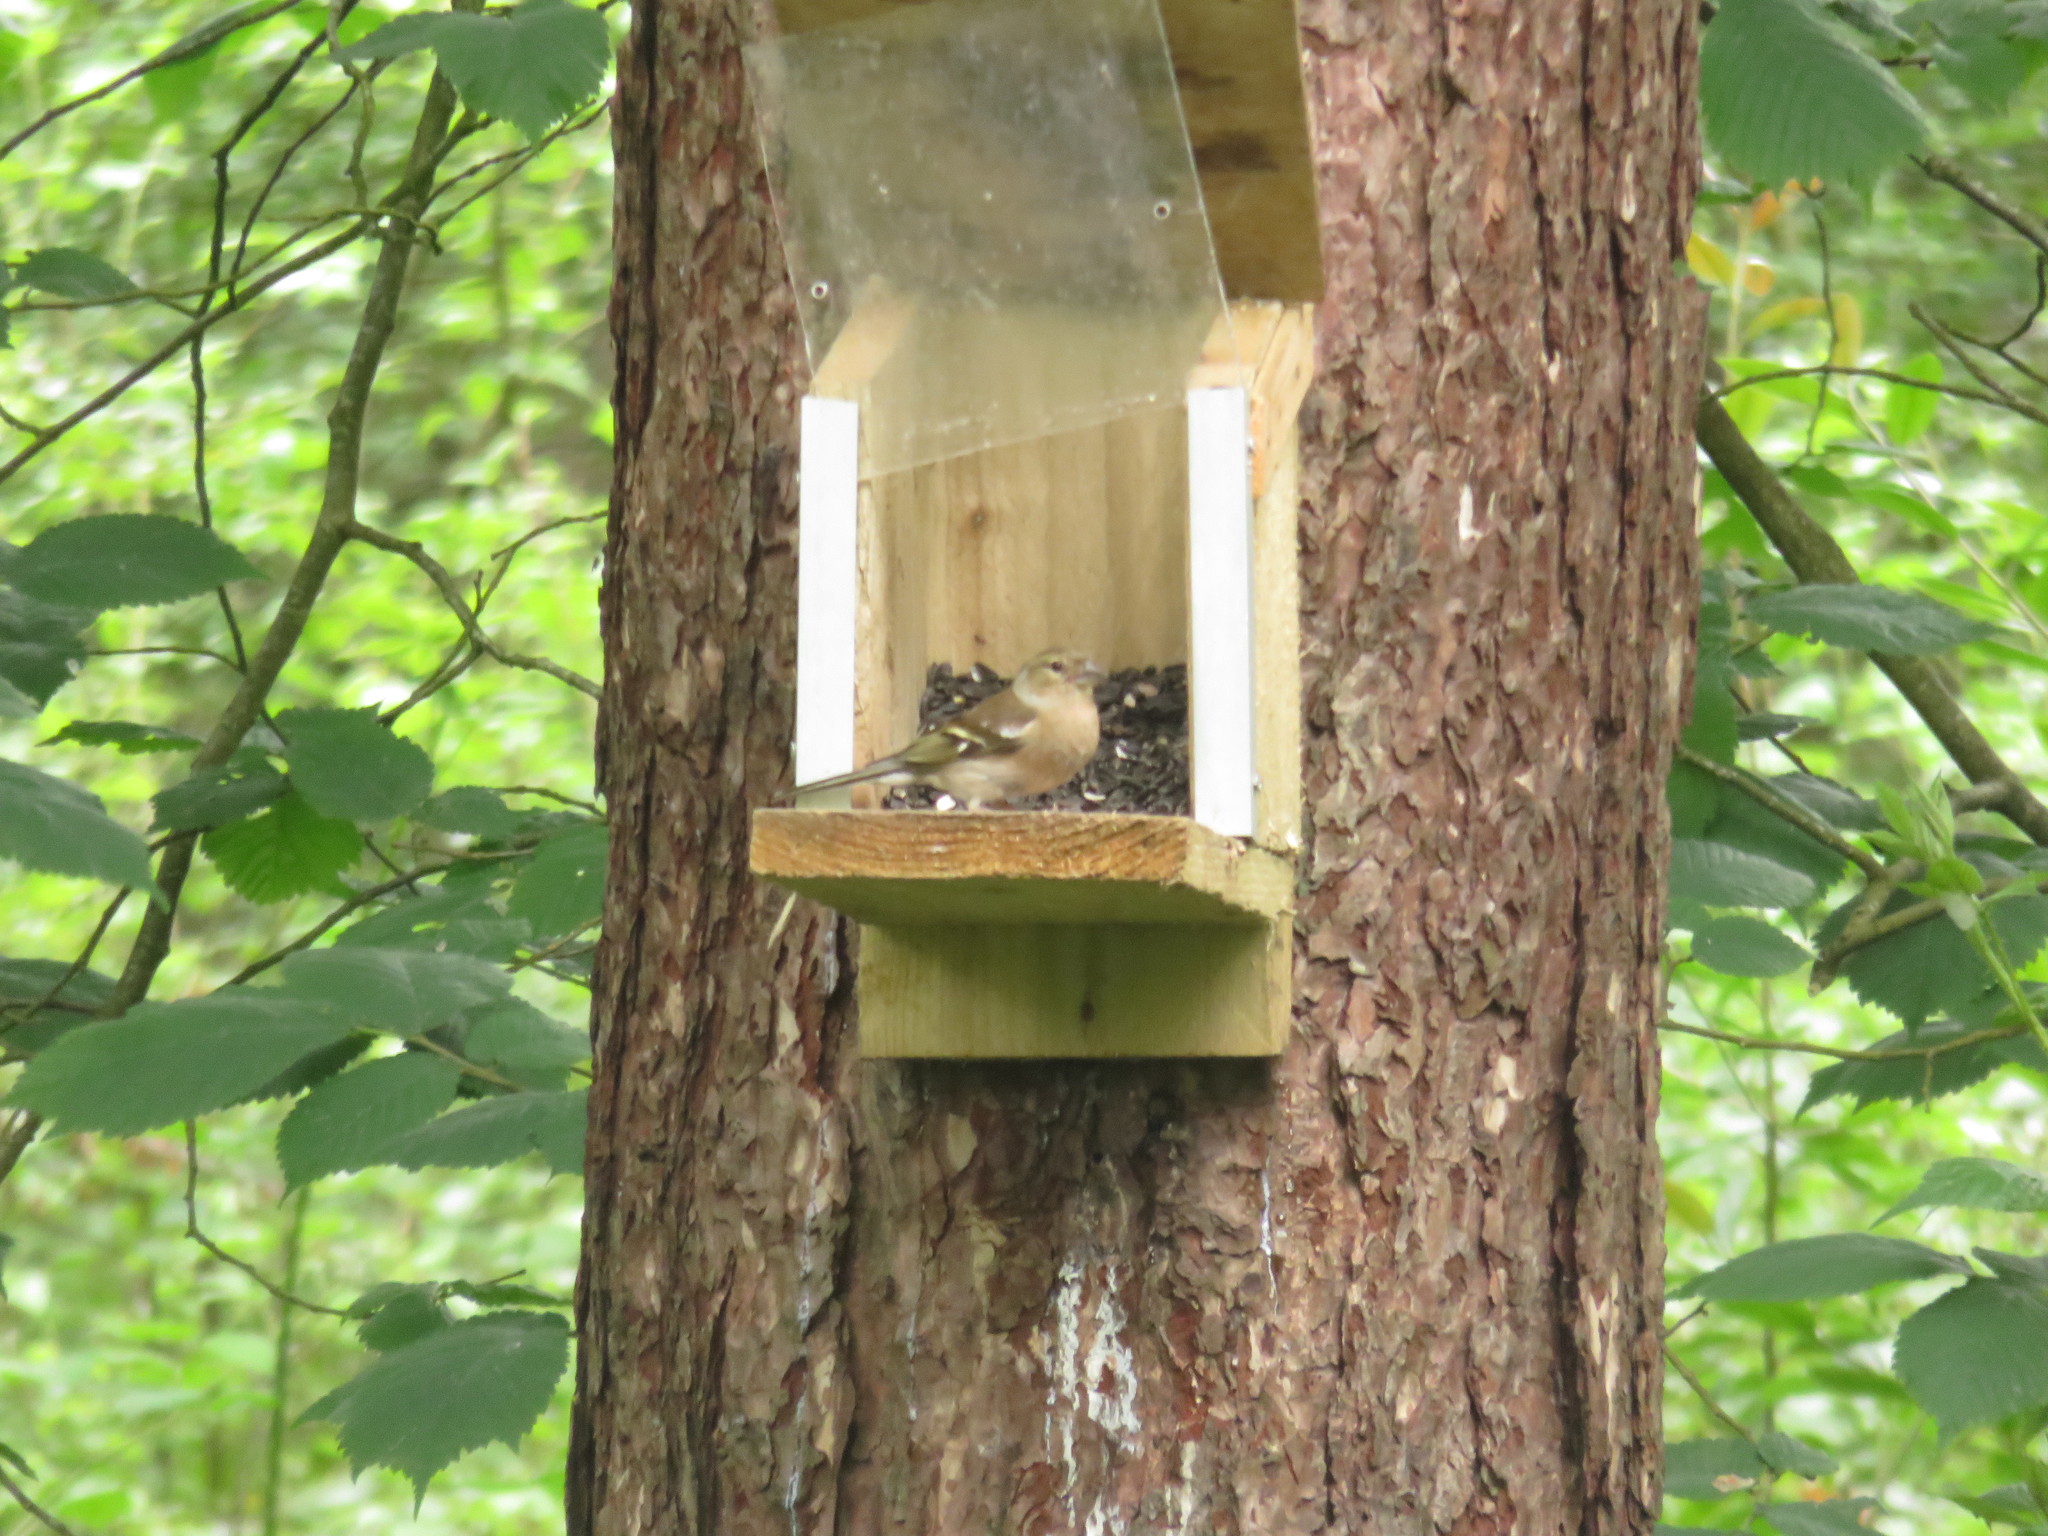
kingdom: Animalia
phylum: Chordata
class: Aves
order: Passeriformes
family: Fringillidae
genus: Fringilla
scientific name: Fringilla coelebs
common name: Common chaffinch
